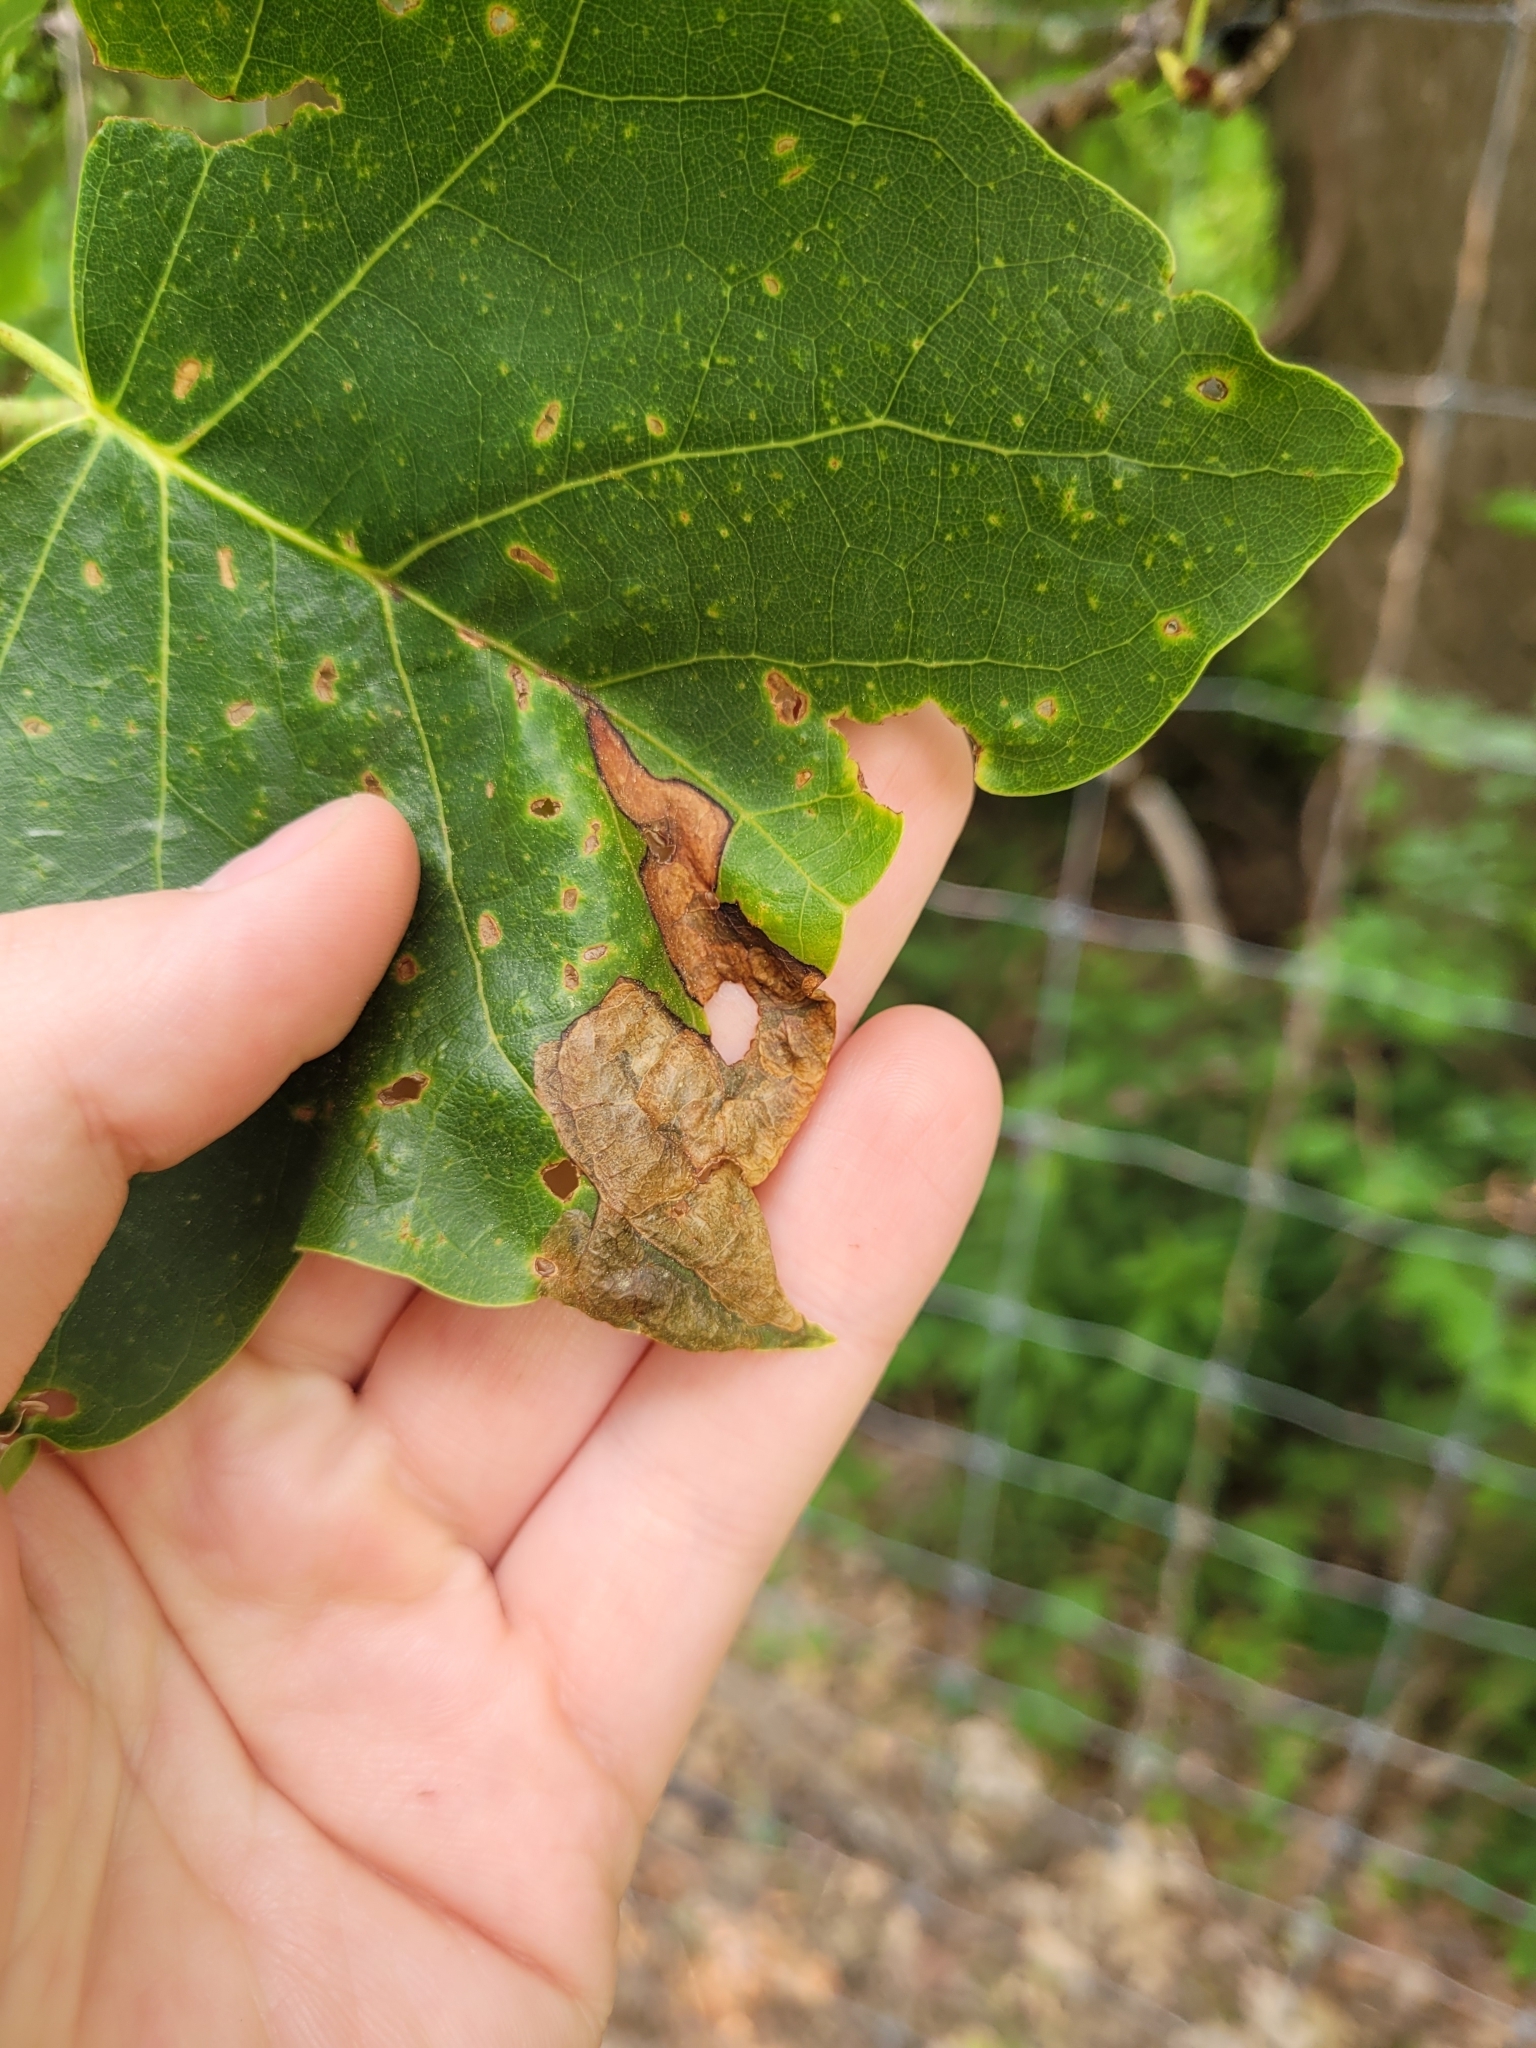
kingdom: Animalia
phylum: Arthropoda
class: Insecta
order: Coleoptera
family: Curculionidae
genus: Odontopus
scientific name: Odontopus calceatus
